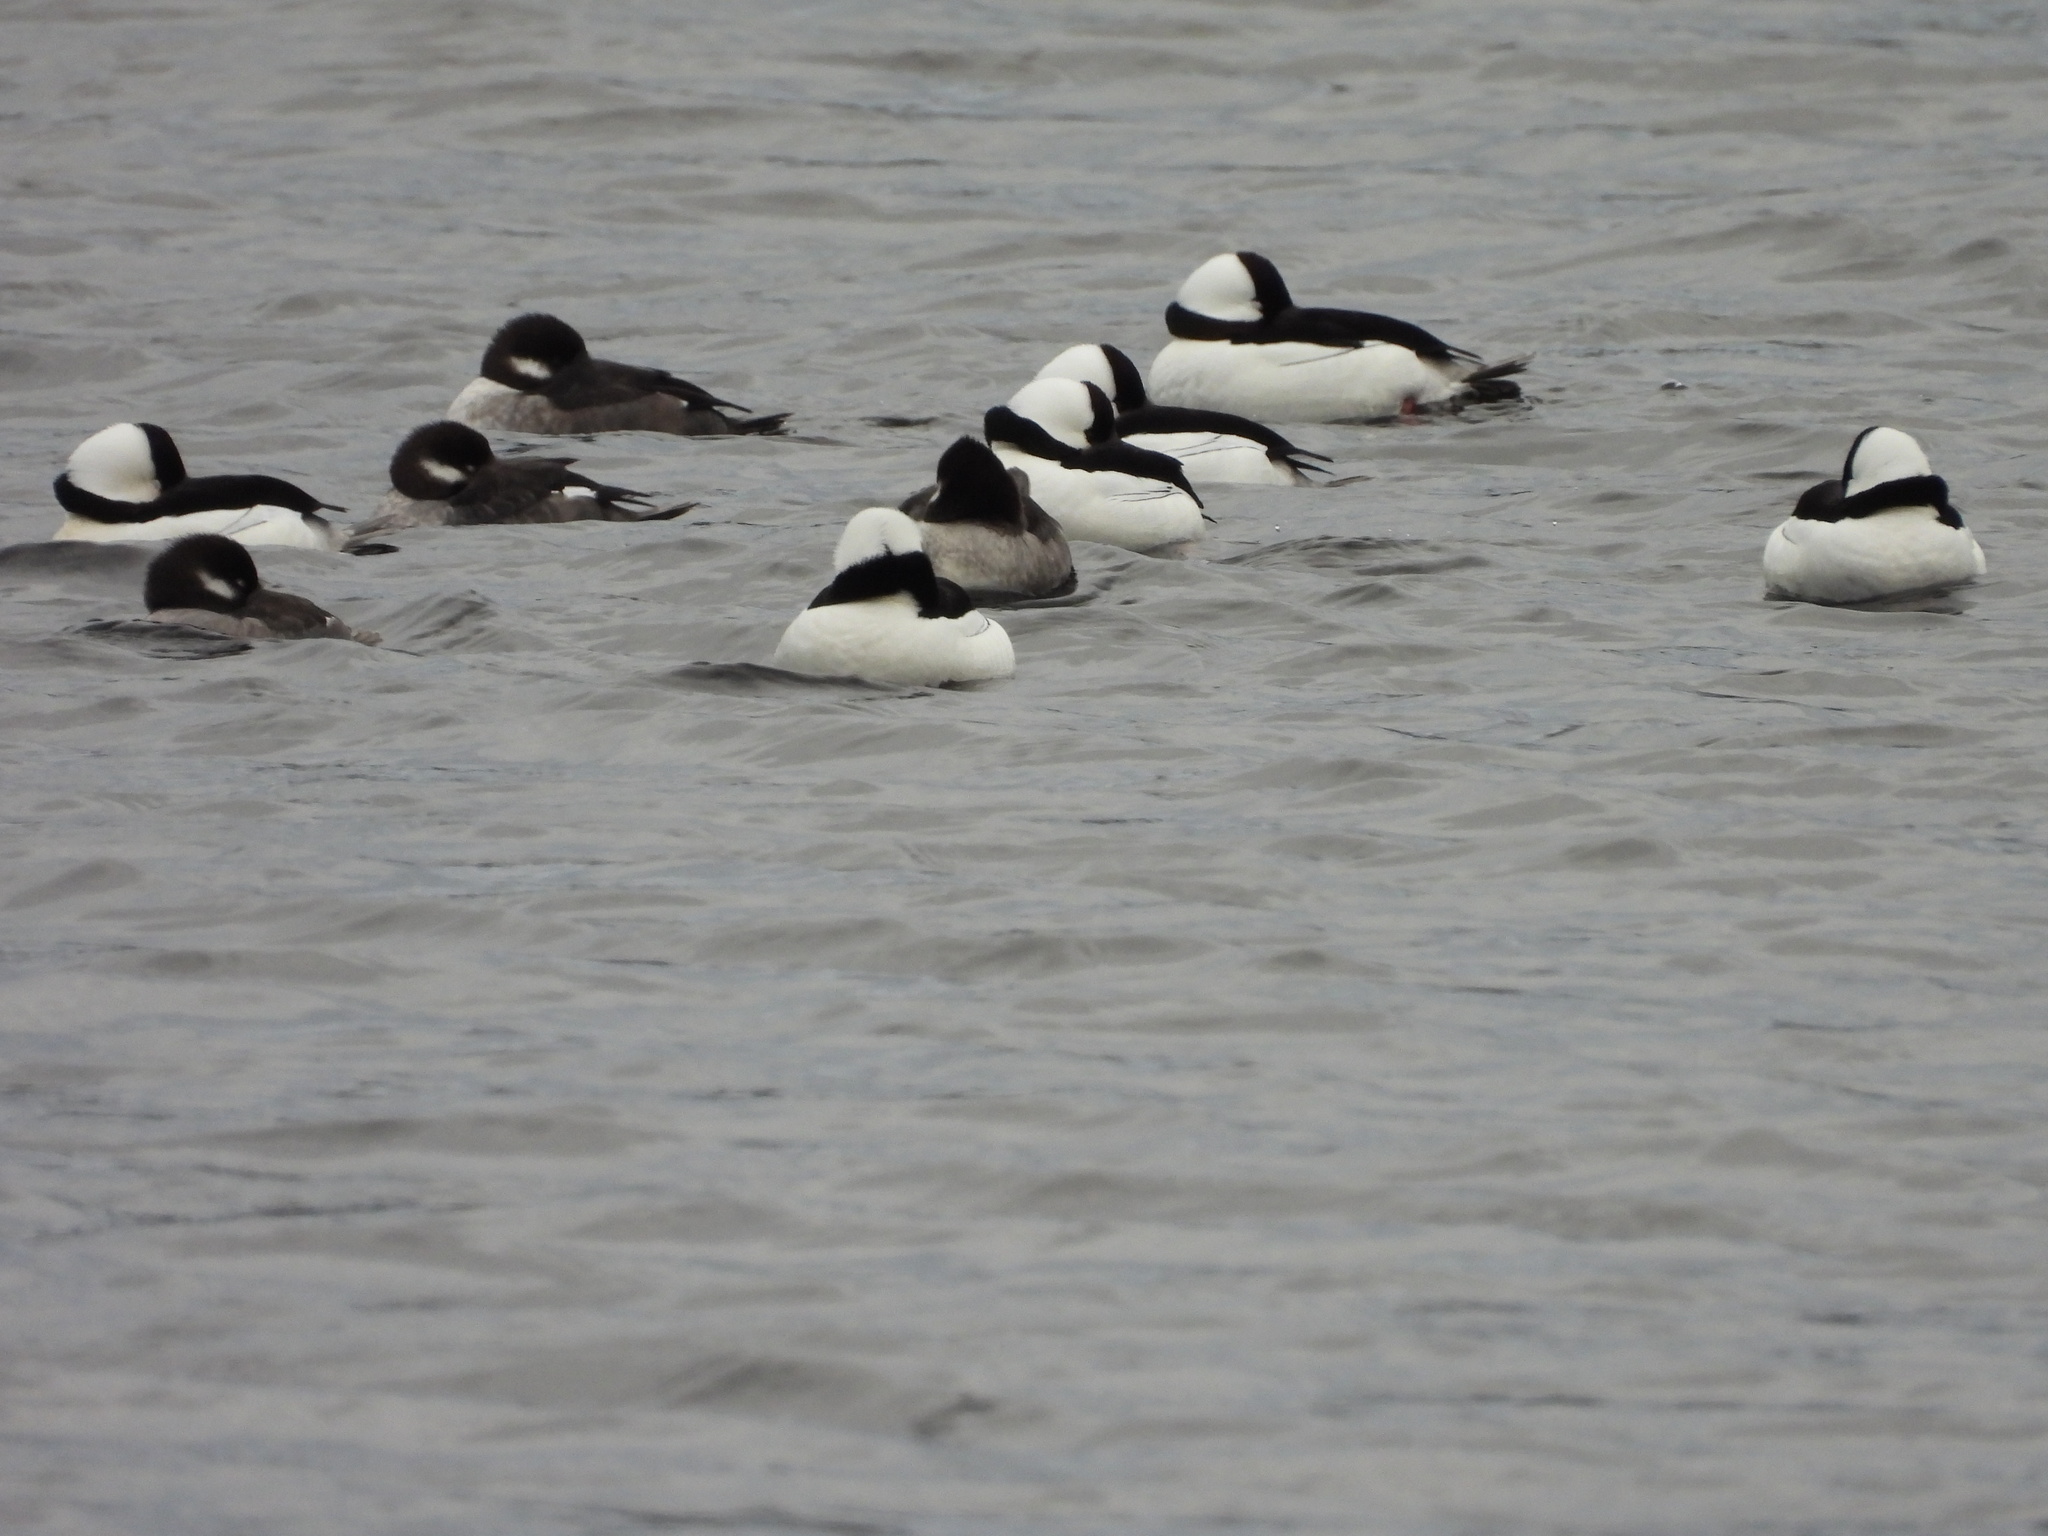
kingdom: Animalia
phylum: Chordata
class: Aves
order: Anseriformes
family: Anatidae
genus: Bucephala
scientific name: Bucephala albeola
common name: Bufflehead
